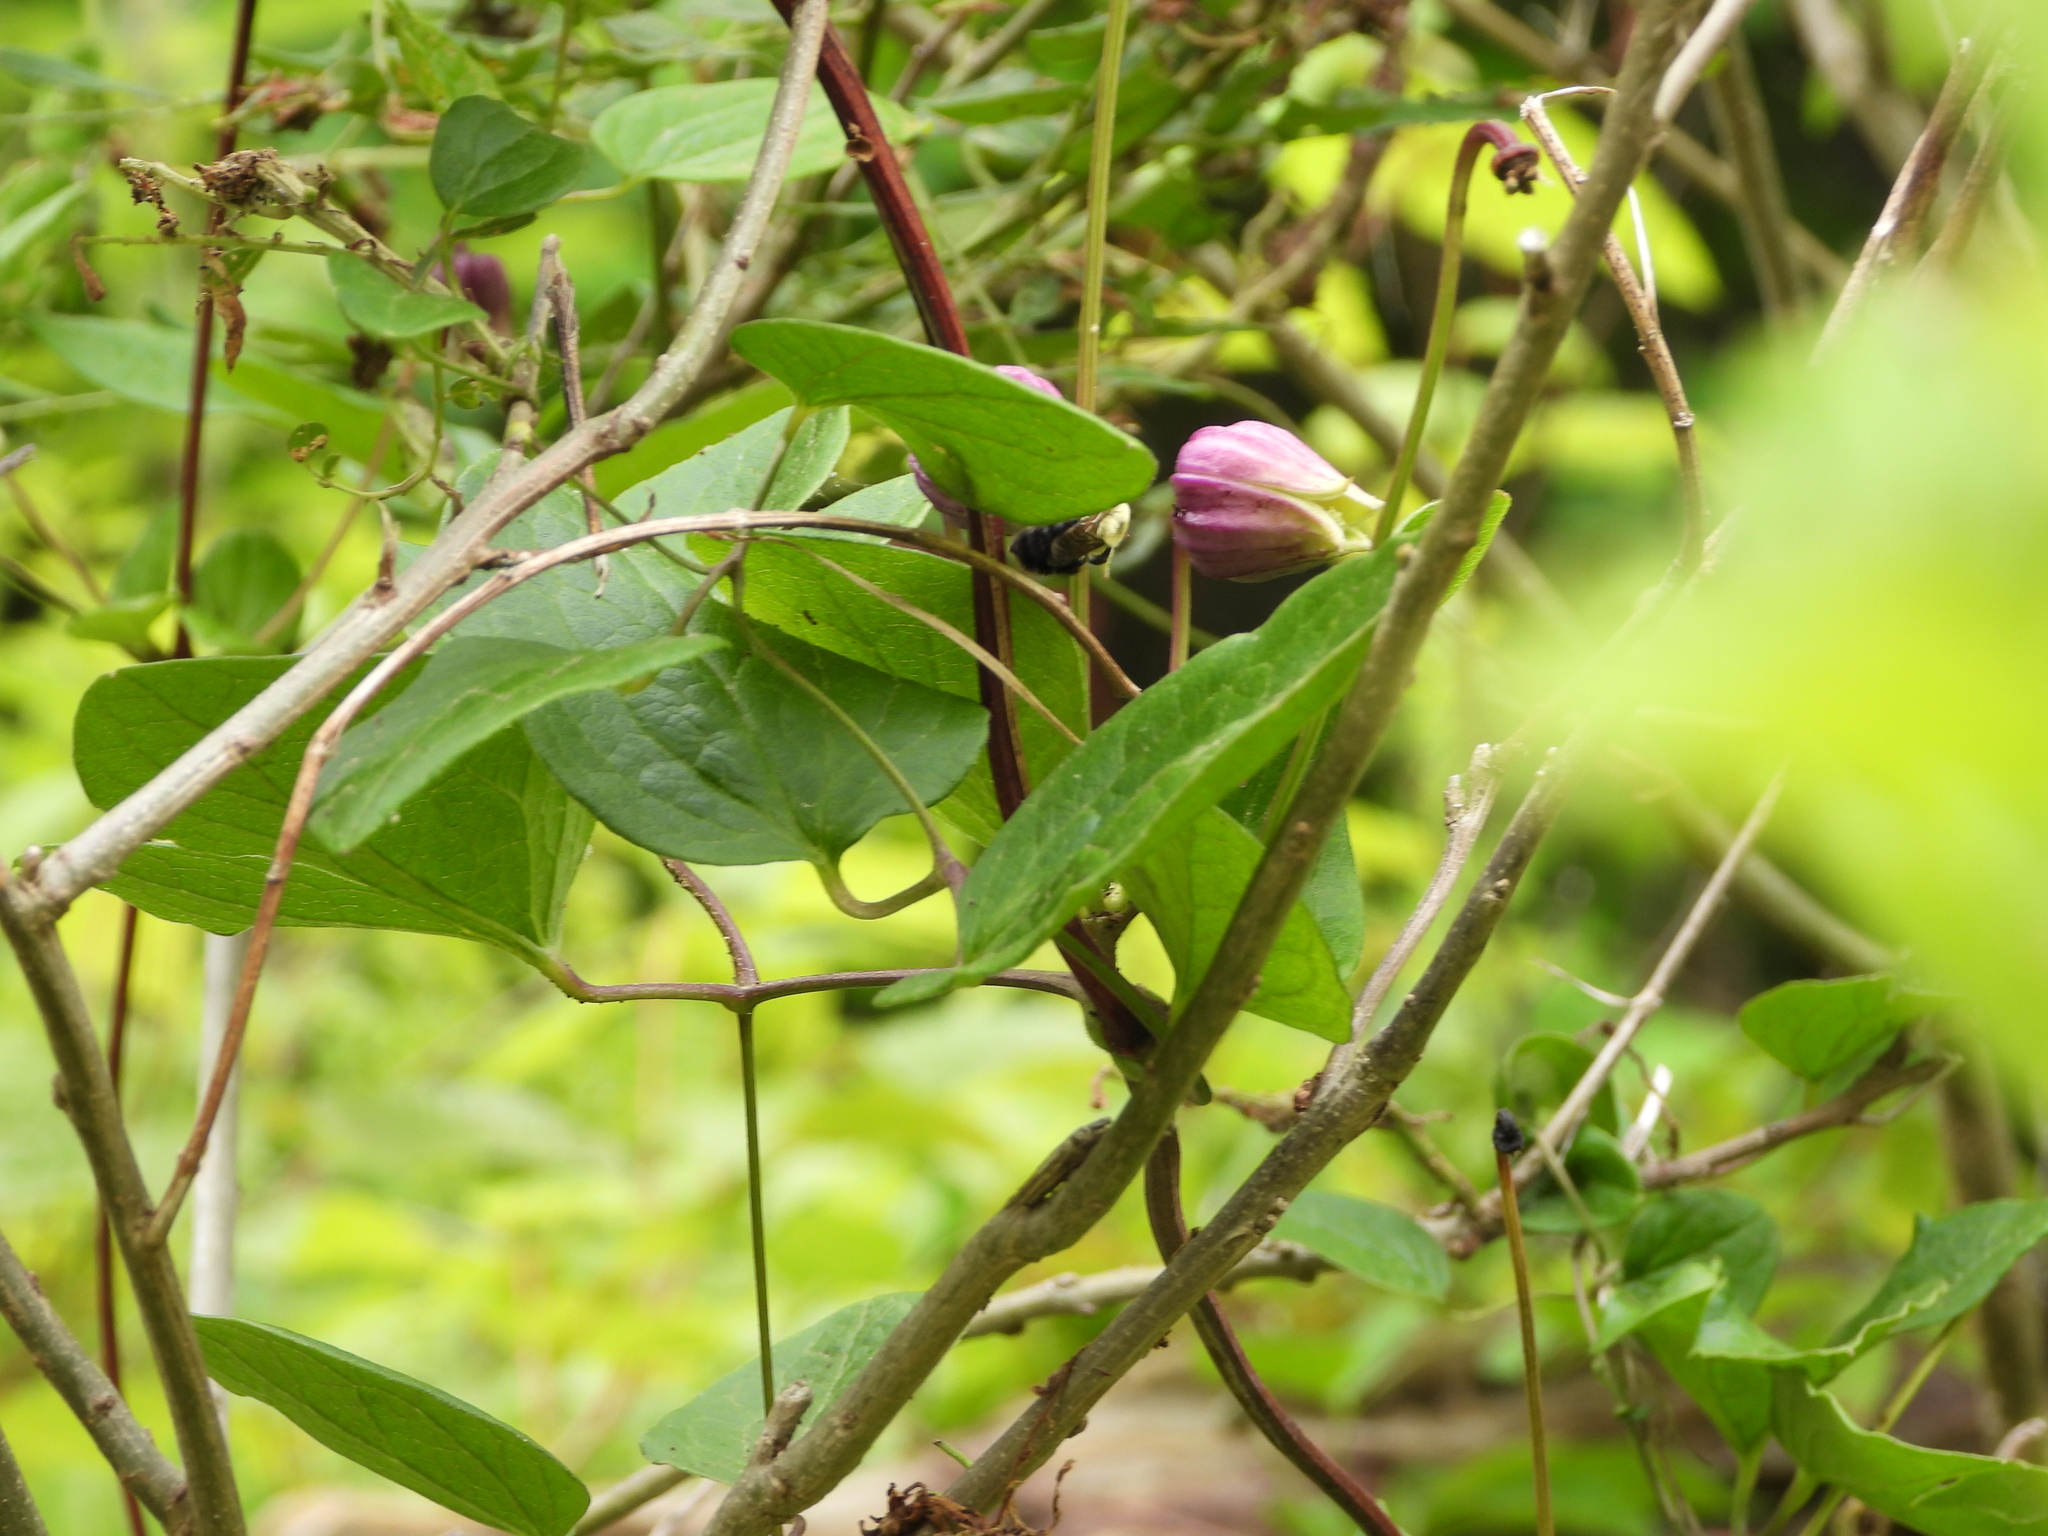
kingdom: Plantae
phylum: Tracheophyta
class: Magnoliopsida
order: Ranunculales
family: Ranunculaceae
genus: Clematis
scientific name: Clematis cumberlandensis
